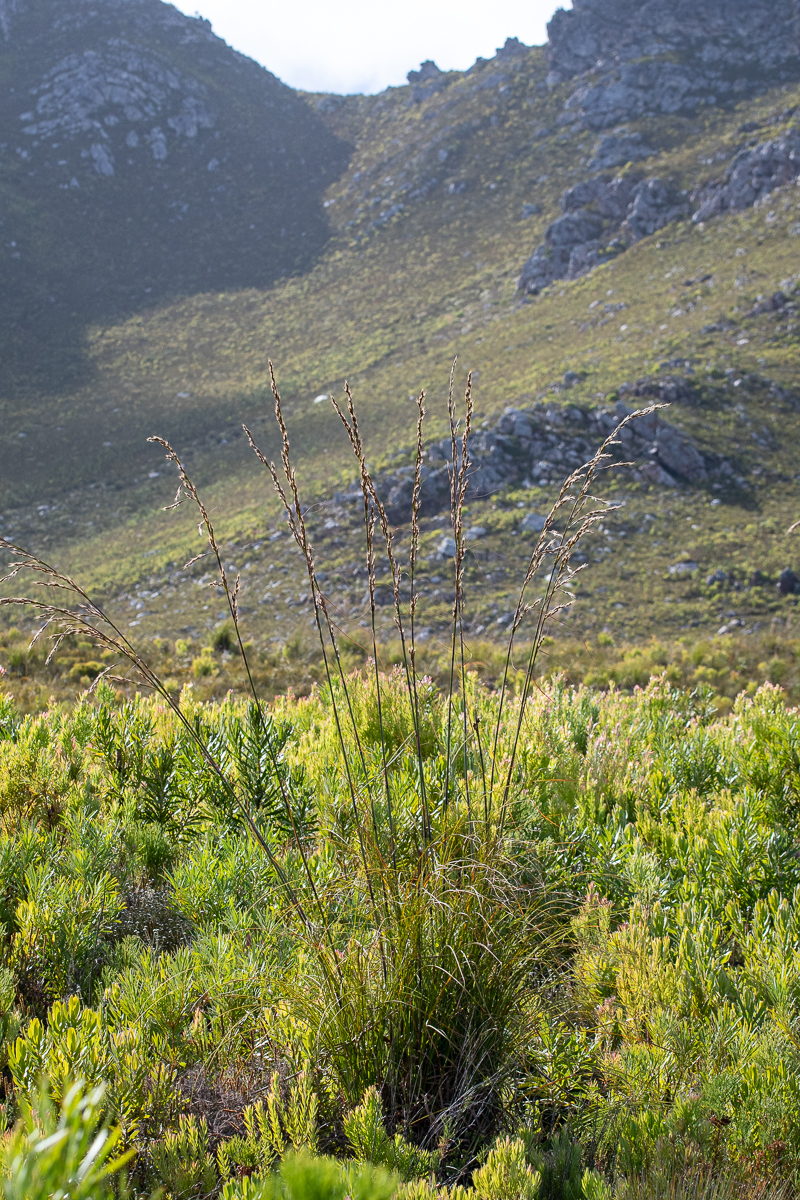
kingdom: Plantae
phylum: Tracheophyta
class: Liliopsida
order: Poales
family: Cyperaceae
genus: Tetraria
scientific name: Tetraria bromoides
